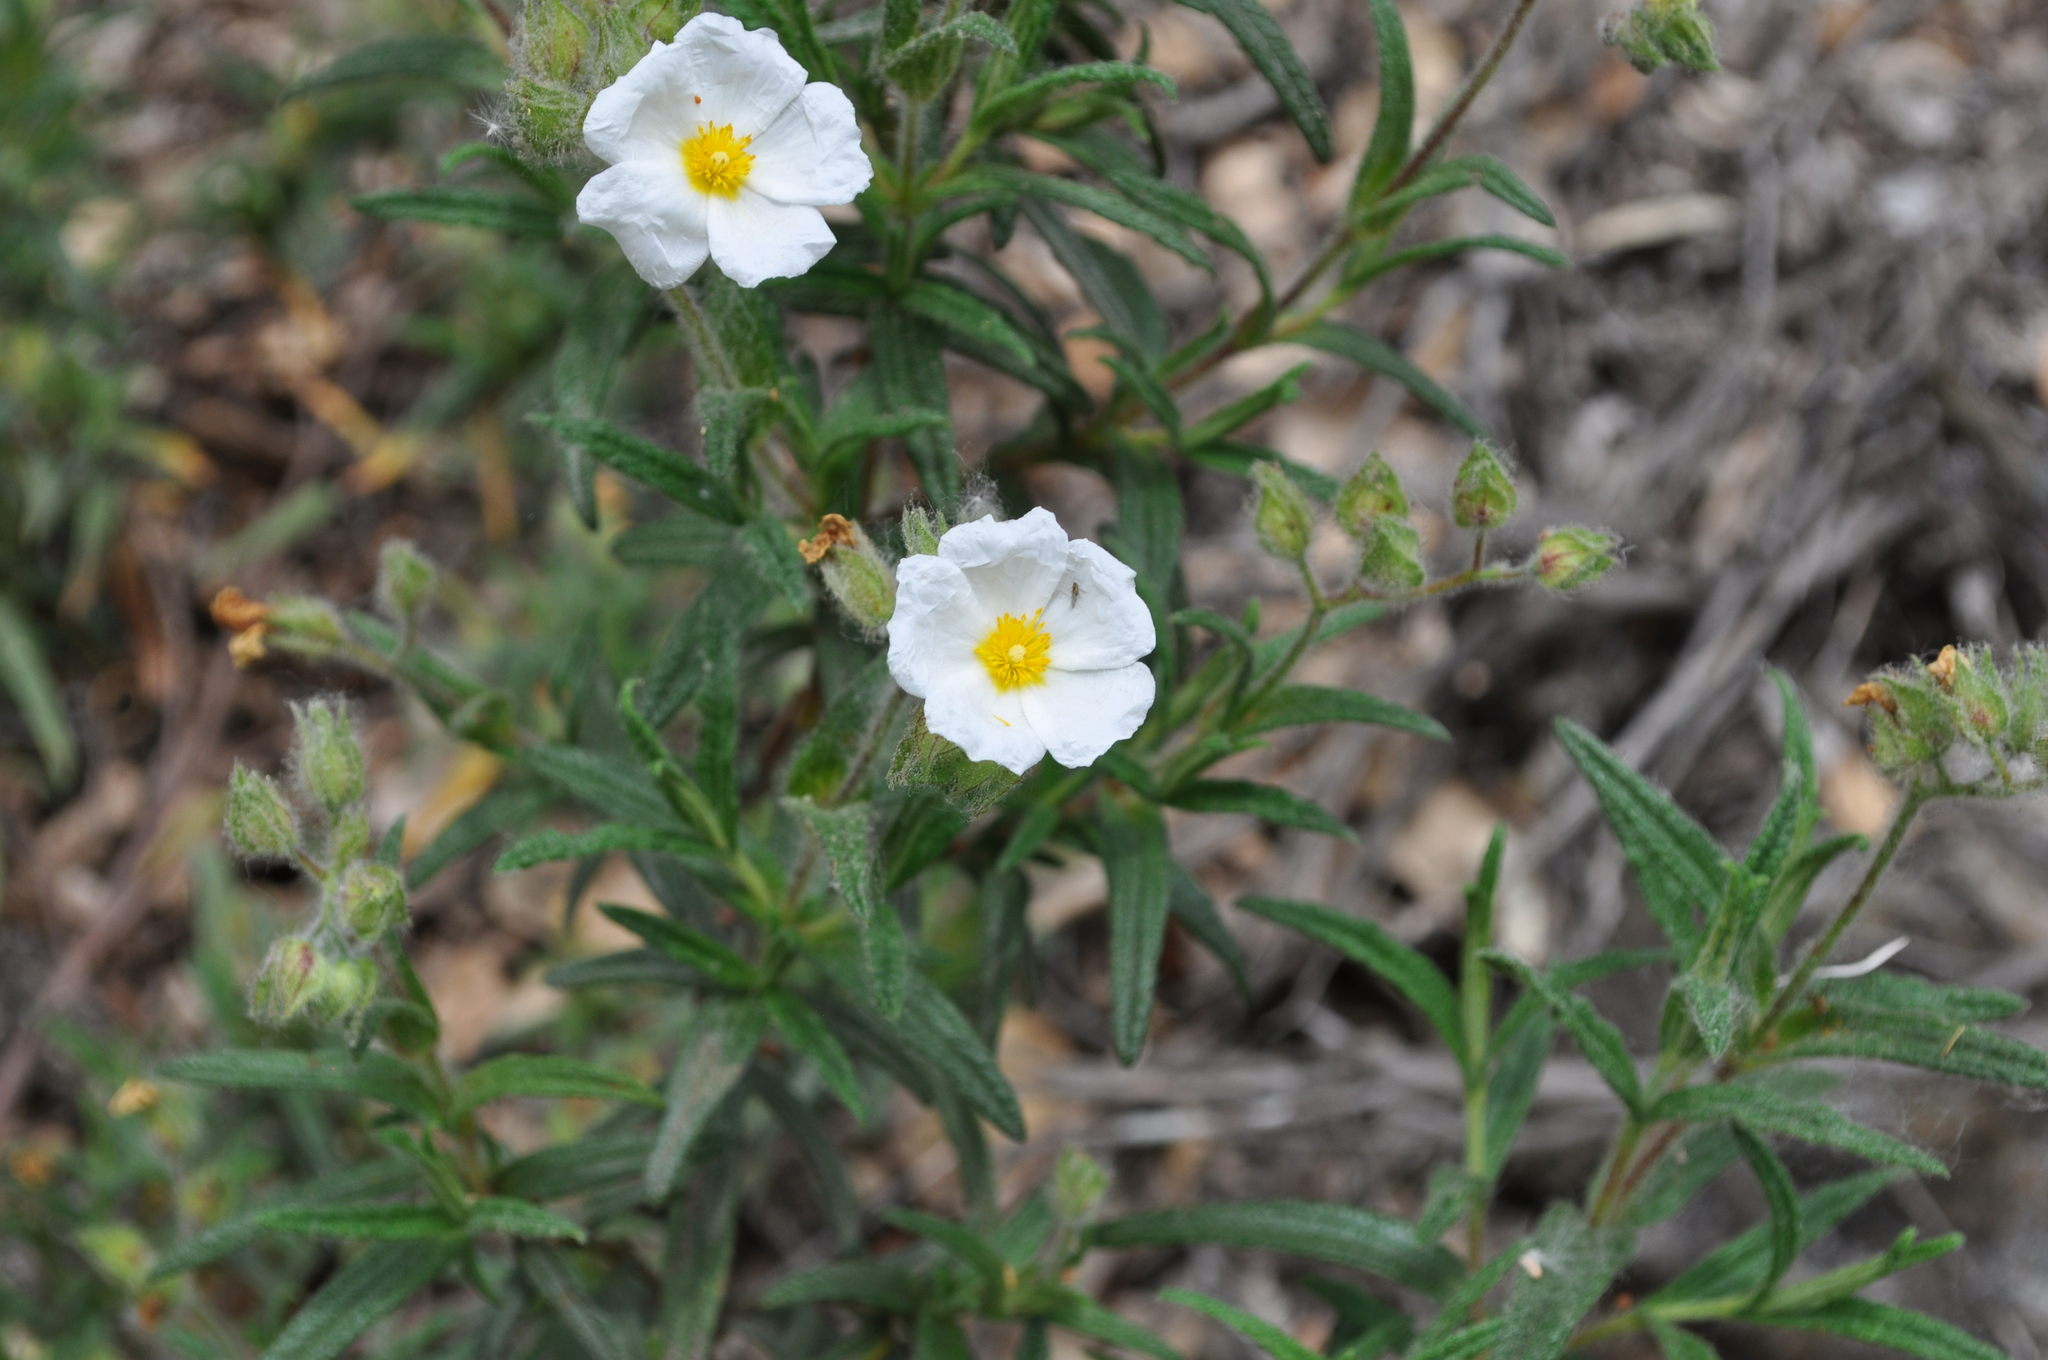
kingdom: Plantae
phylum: Tracheophyta
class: Magnoliopsida
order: Malvales
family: Cistaceae
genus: Cistus
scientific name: Cistus monspeliensis
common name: Montpelier cistus
